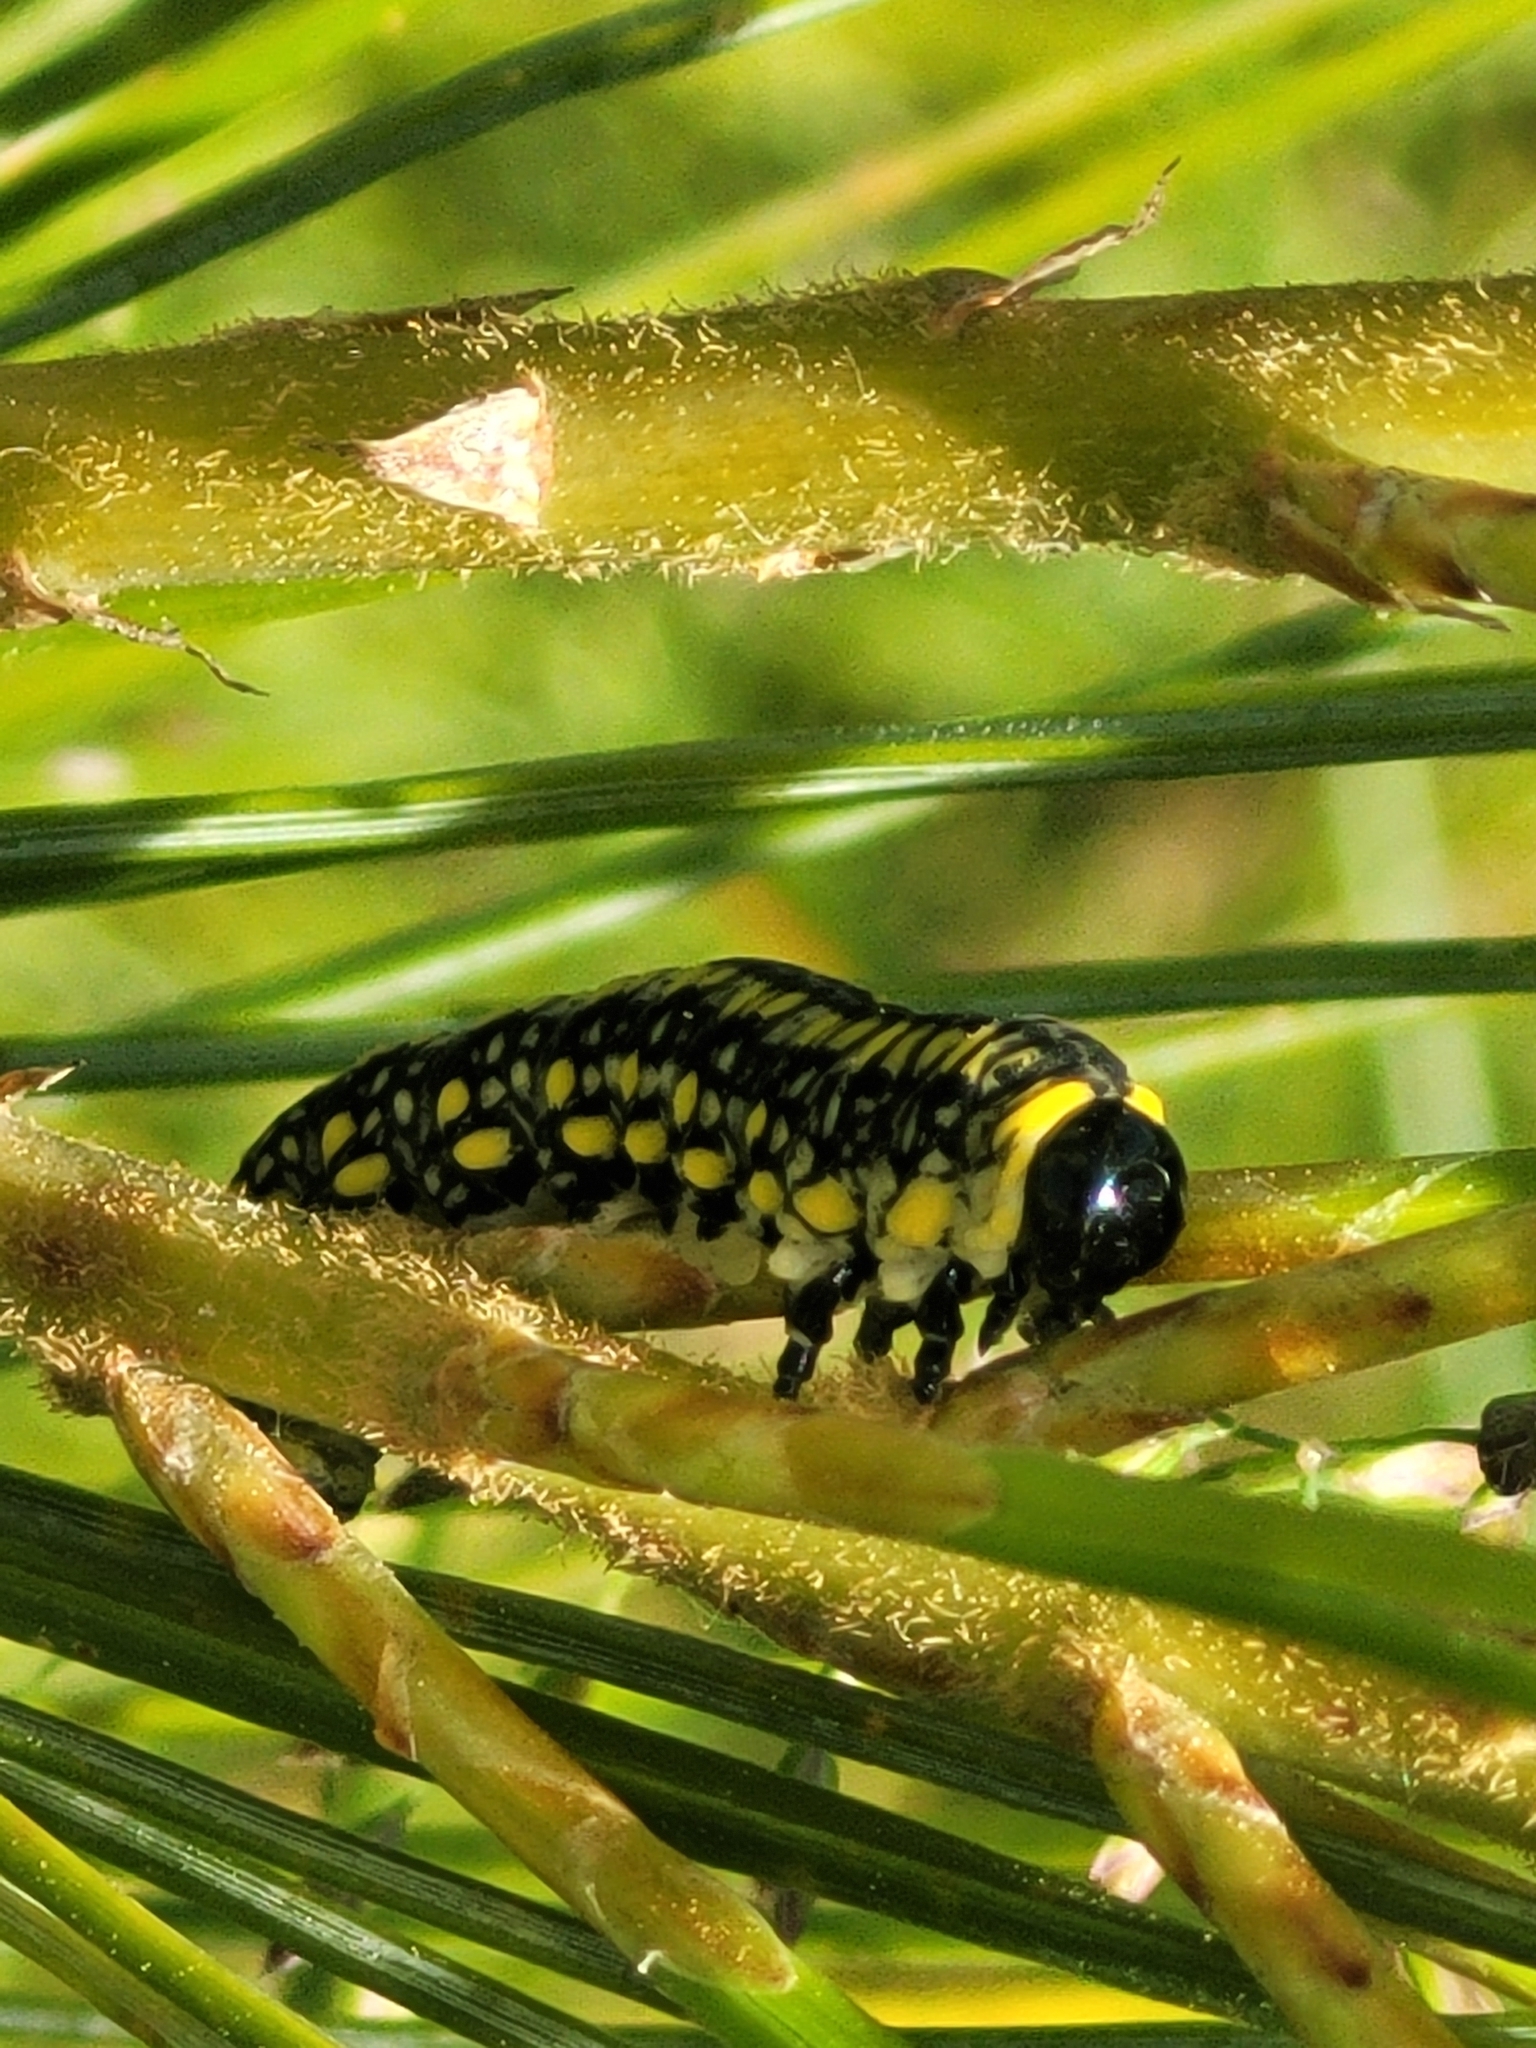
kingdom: Animalia
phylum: Arthropoda
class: Insecta
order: Hymenoptera
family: Diprionidae
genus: Diprion
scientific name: Diprion similis
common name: Pine sawfly
